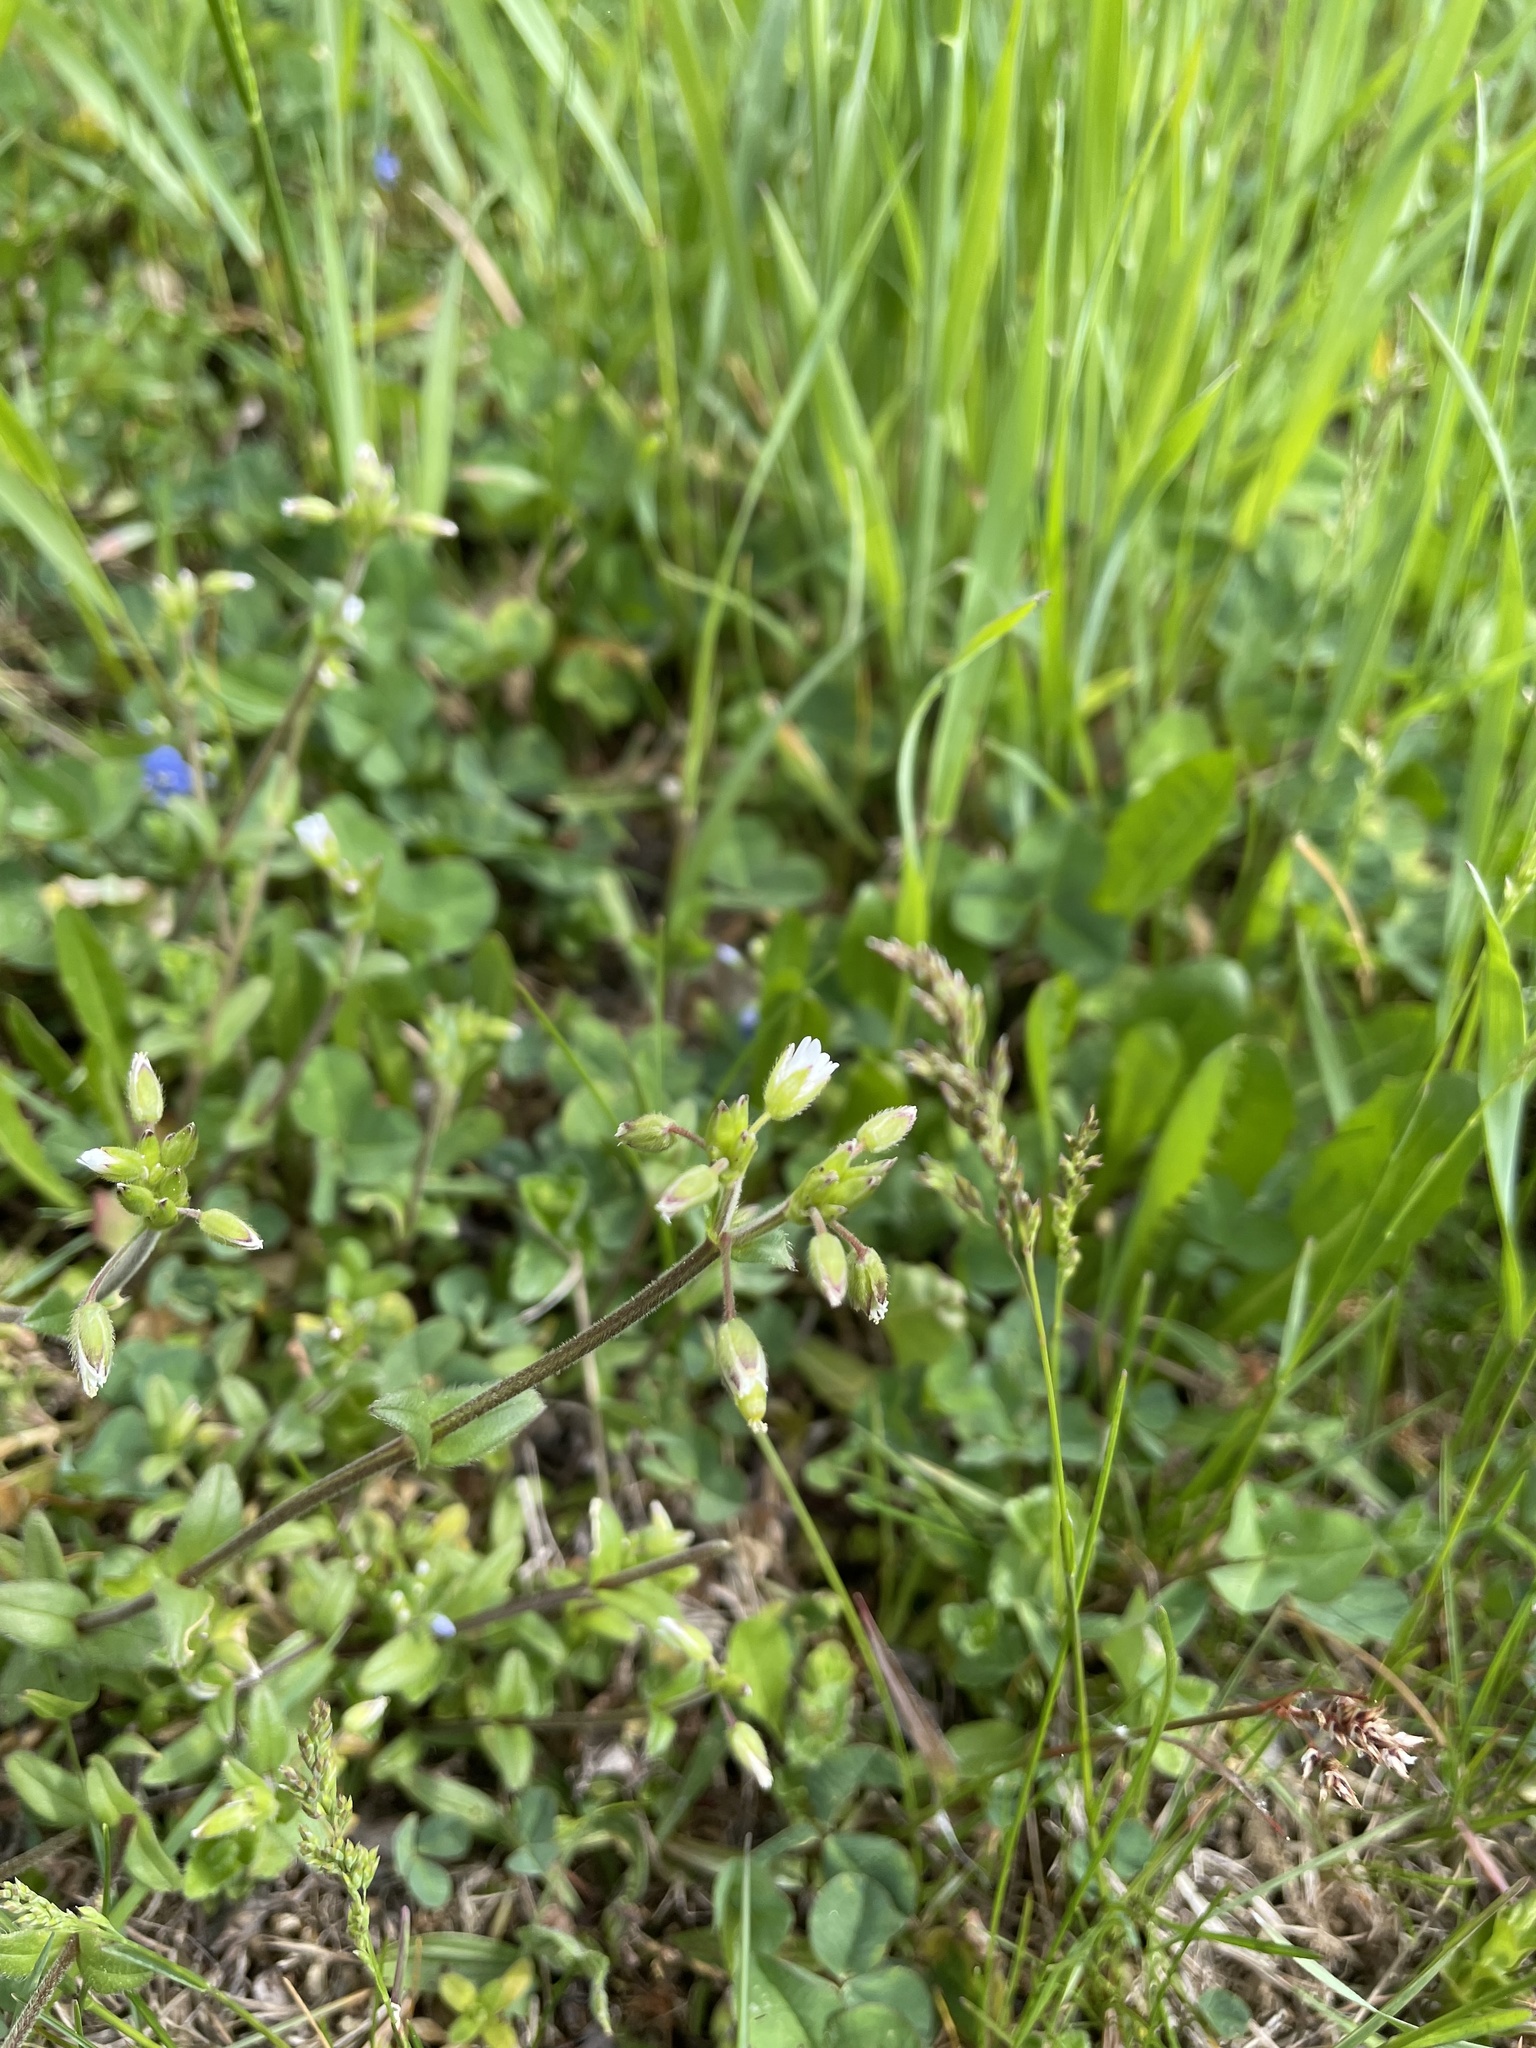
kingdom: Plantae
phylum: Tracheophyta
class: Magnoliopsida
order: Caryophyllales
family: Caryophyllaceae
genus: Cerastium
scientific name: Cerastium holosteoides
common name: Big chickweed
